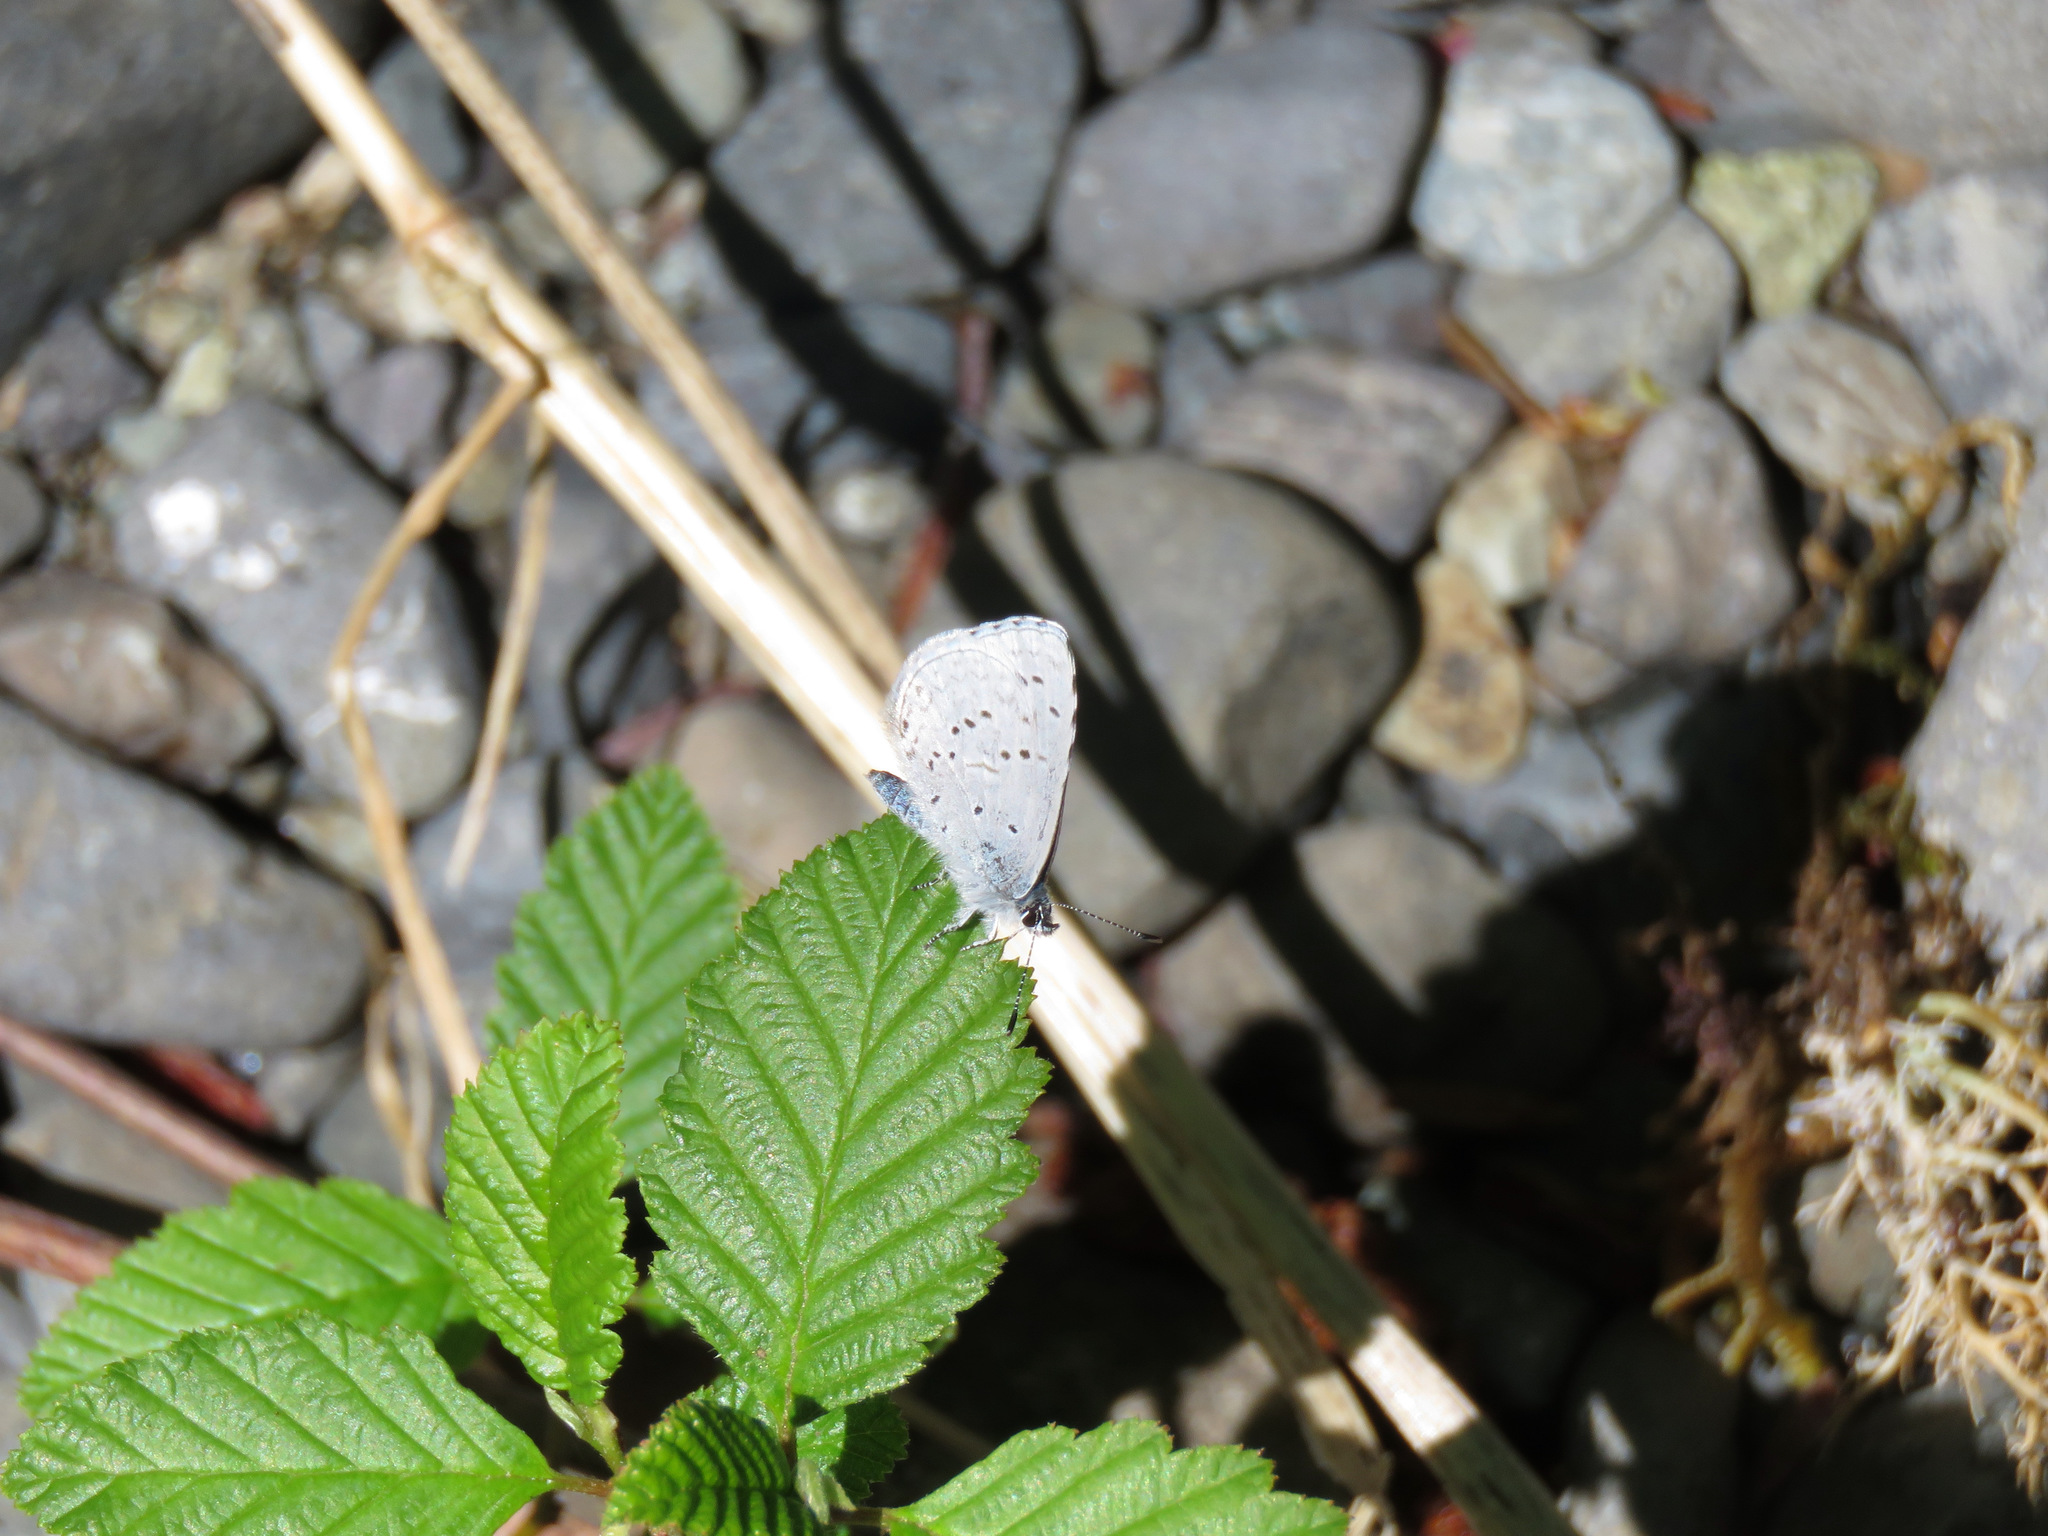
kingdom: Animalia
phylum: Arthropoda
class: Insecta
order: Lepidoptera
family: Lycaenidae
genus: Celastrina
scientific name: Celastrina ladon
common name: Spring azure
